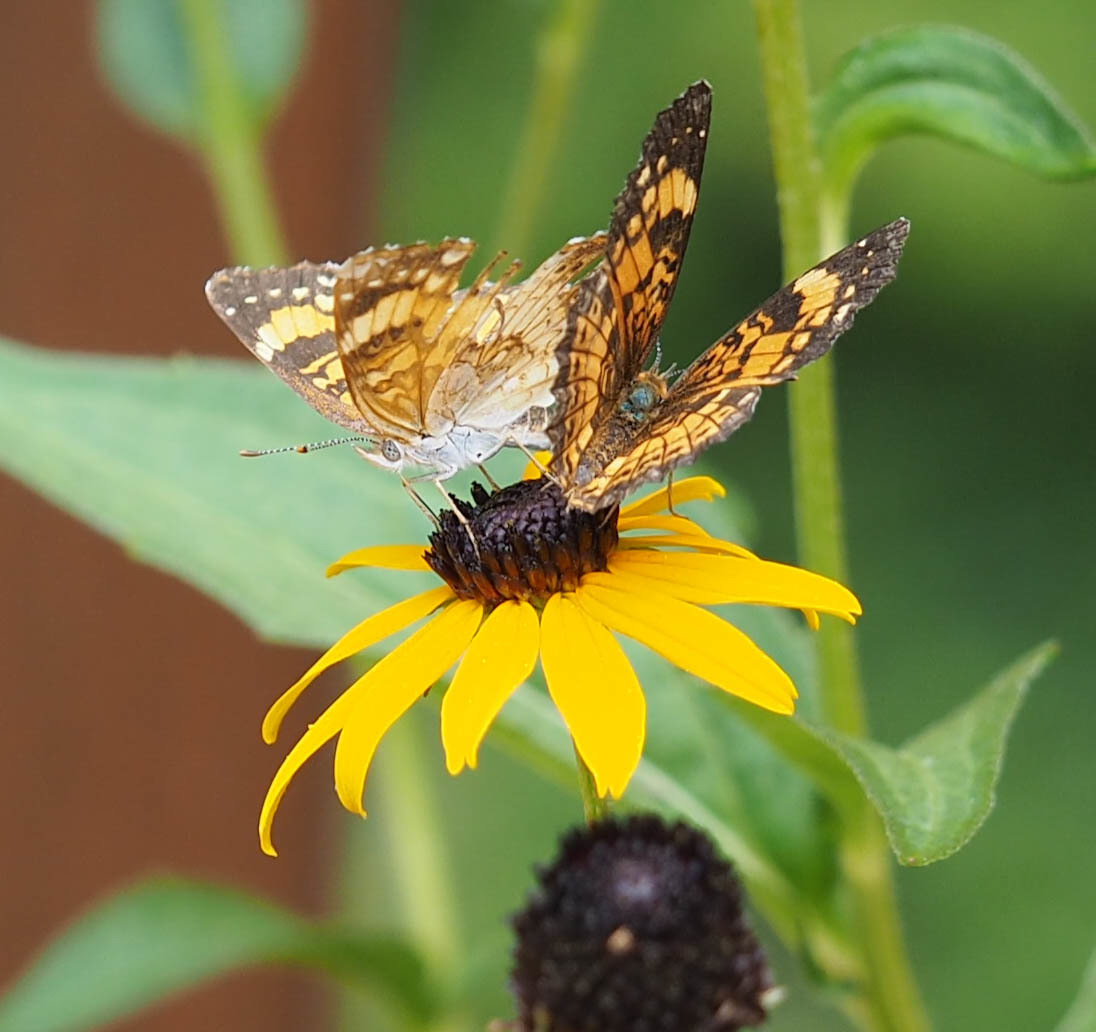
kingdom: Animalia
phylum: Arthropoda
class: Insecta
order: Lepidoptera
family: Nymphalidae
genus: Chlosyne
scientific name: Chlosyne nycteis
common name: Silvery checkerspot
